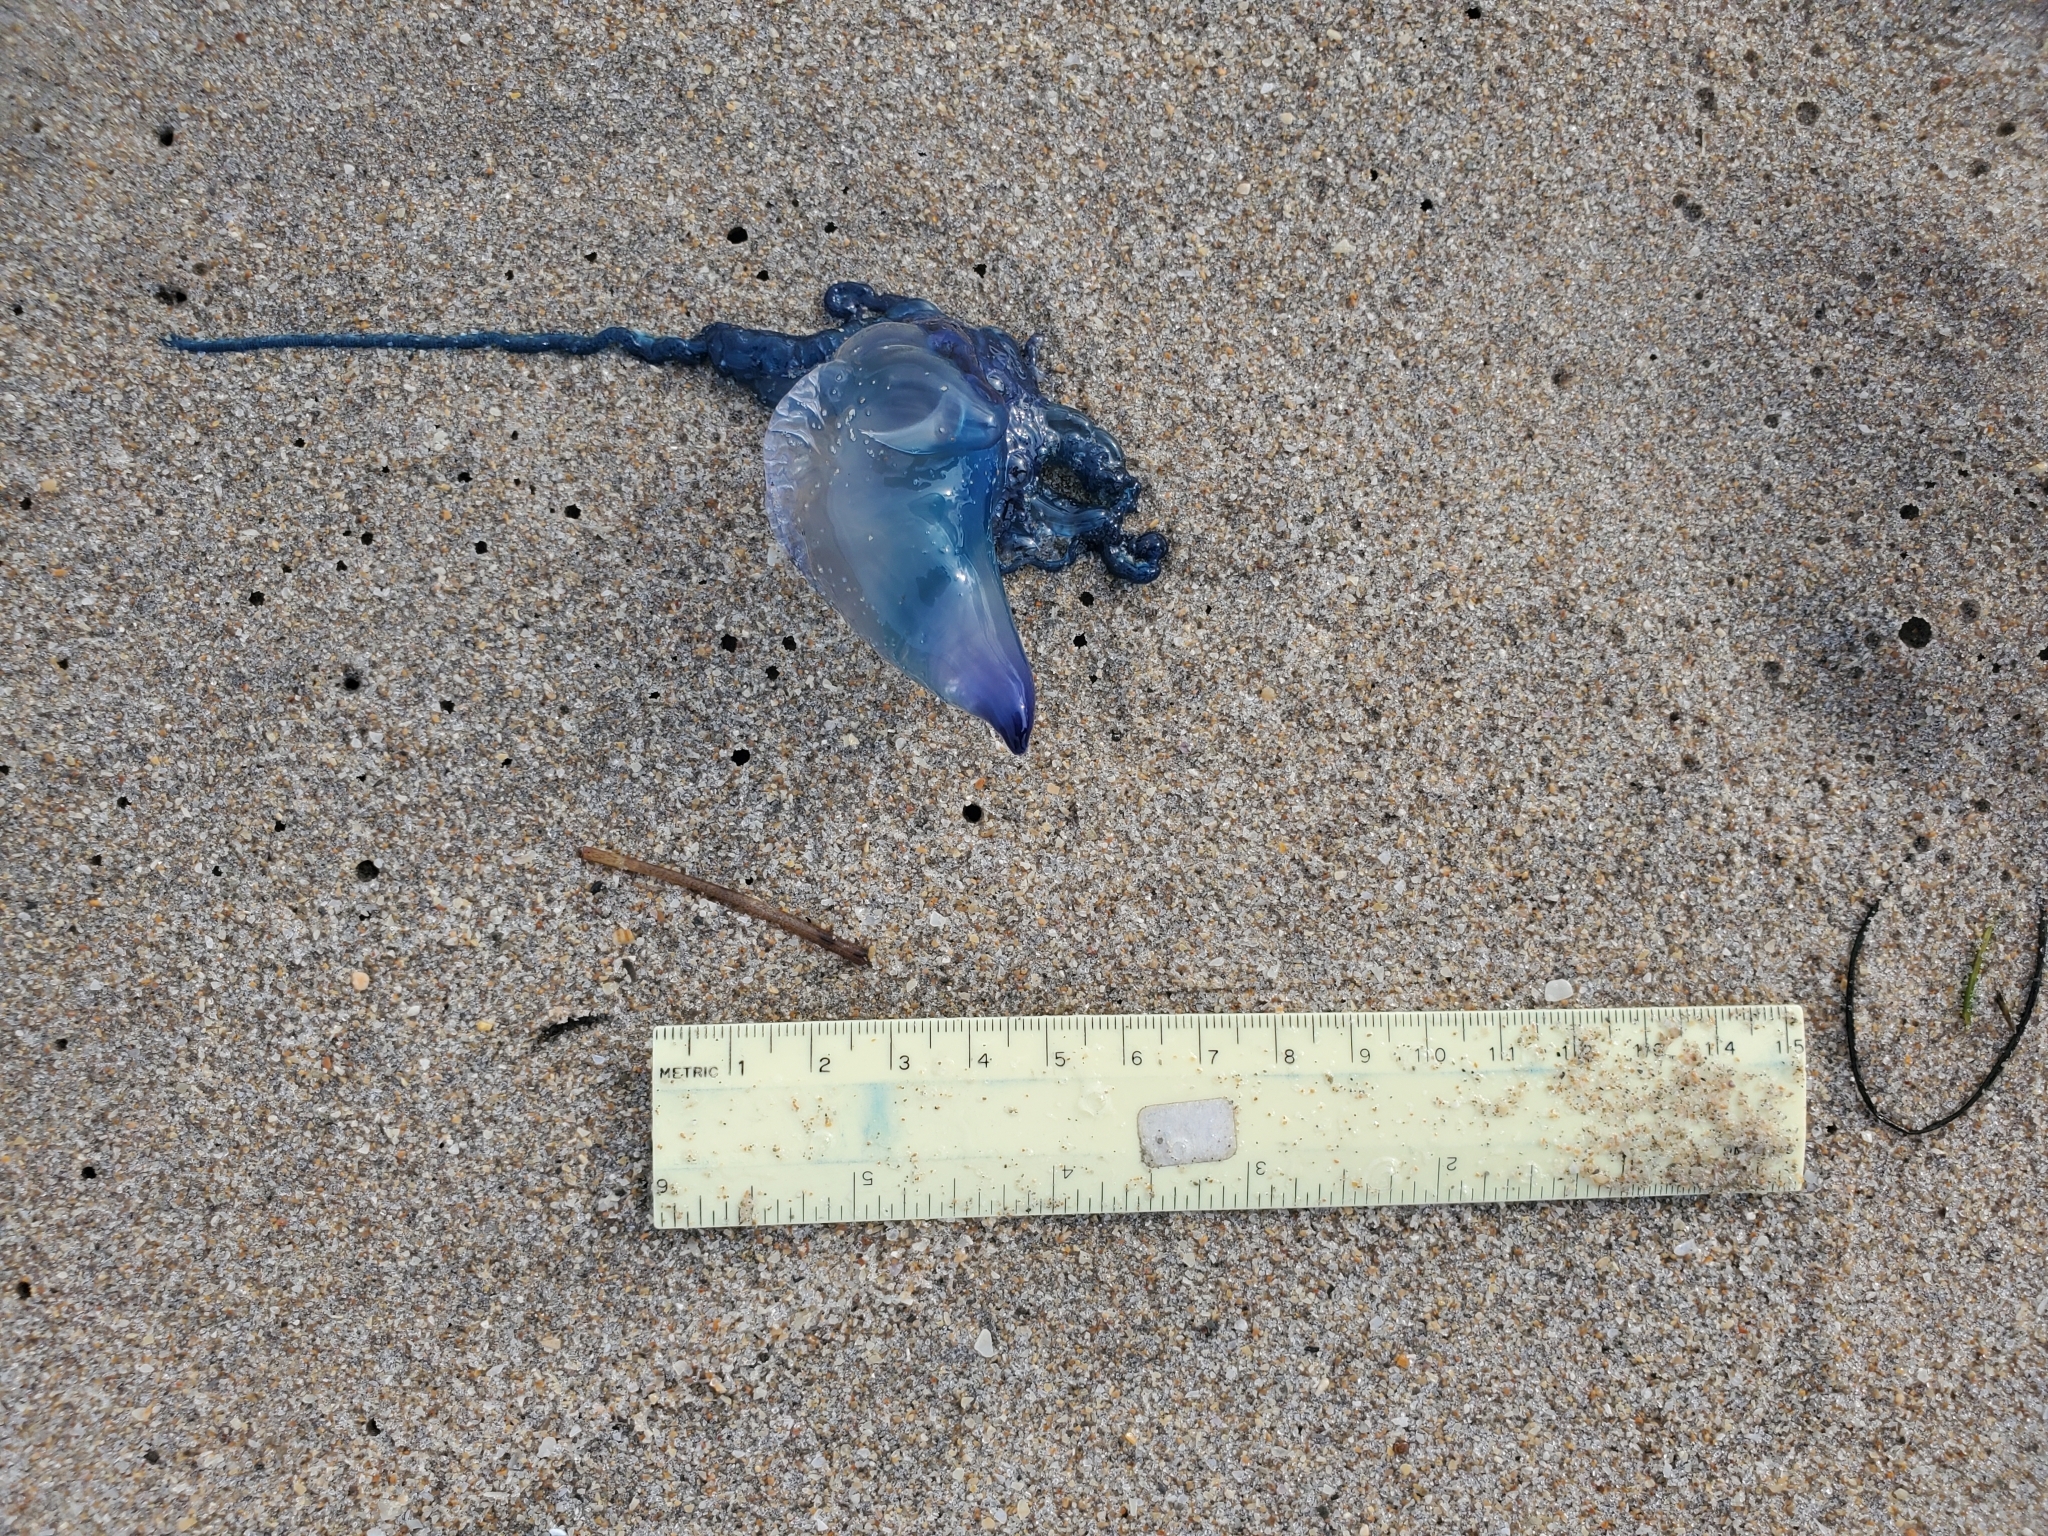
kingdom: Animalia
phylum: Cnidaria
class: Hydrozoa
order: Siphonophorae
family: Physaliidae
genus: Physalia
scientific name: Physalia physalis
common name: Portuguese man-of-war
